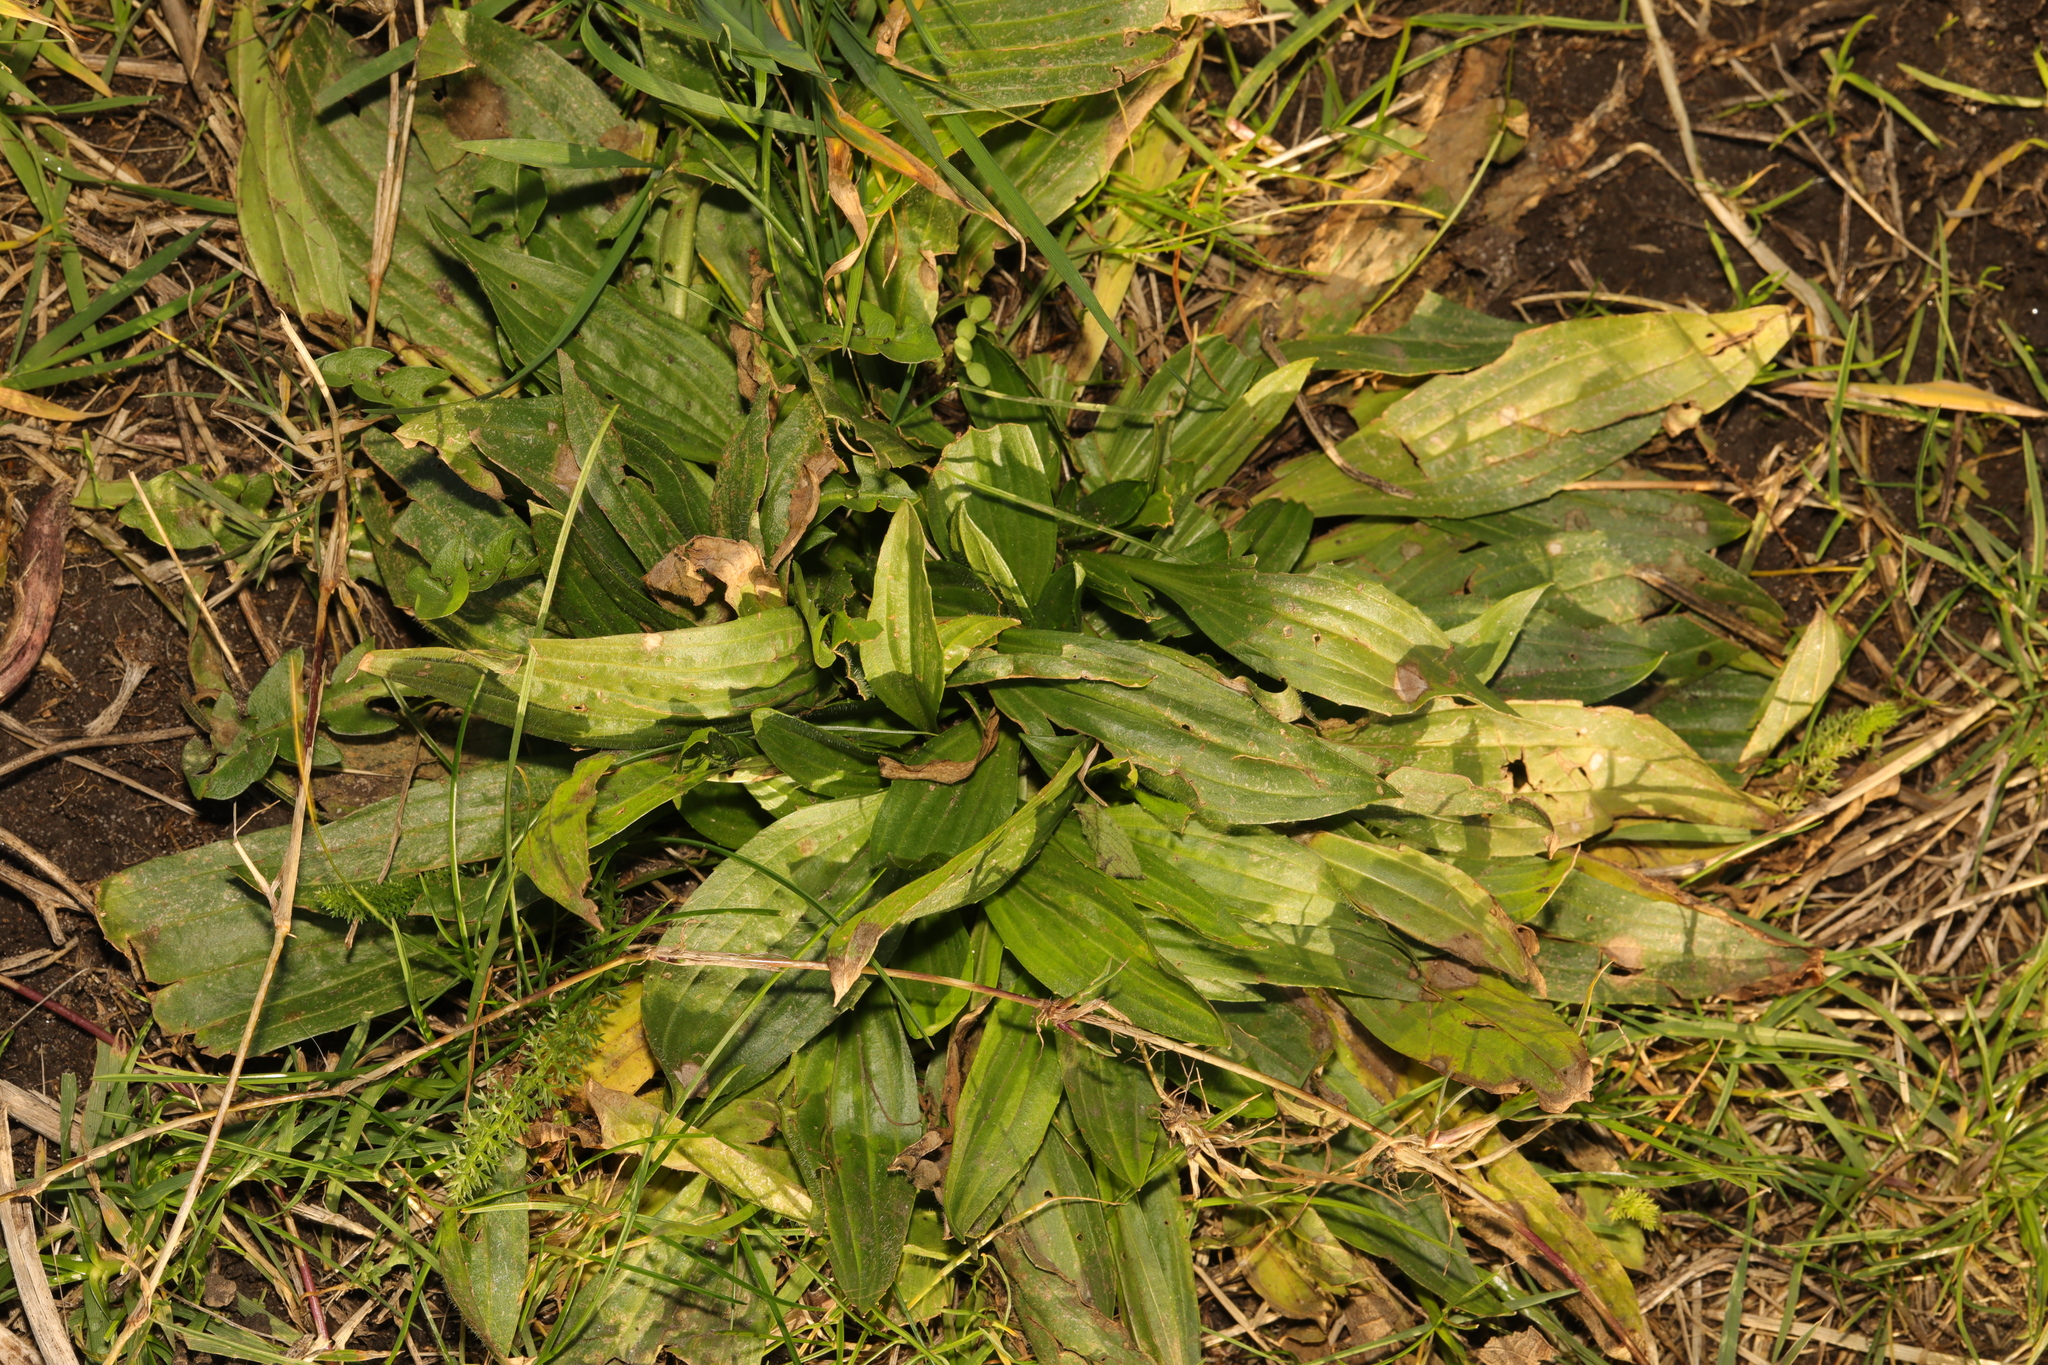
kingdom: Plantae
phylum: Tracheophyta
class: Magnoliopsida
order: Lamiales
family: Plantaginaceae
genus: Plantago
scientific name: Plantago lanceolata
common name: Ribwort plantain
